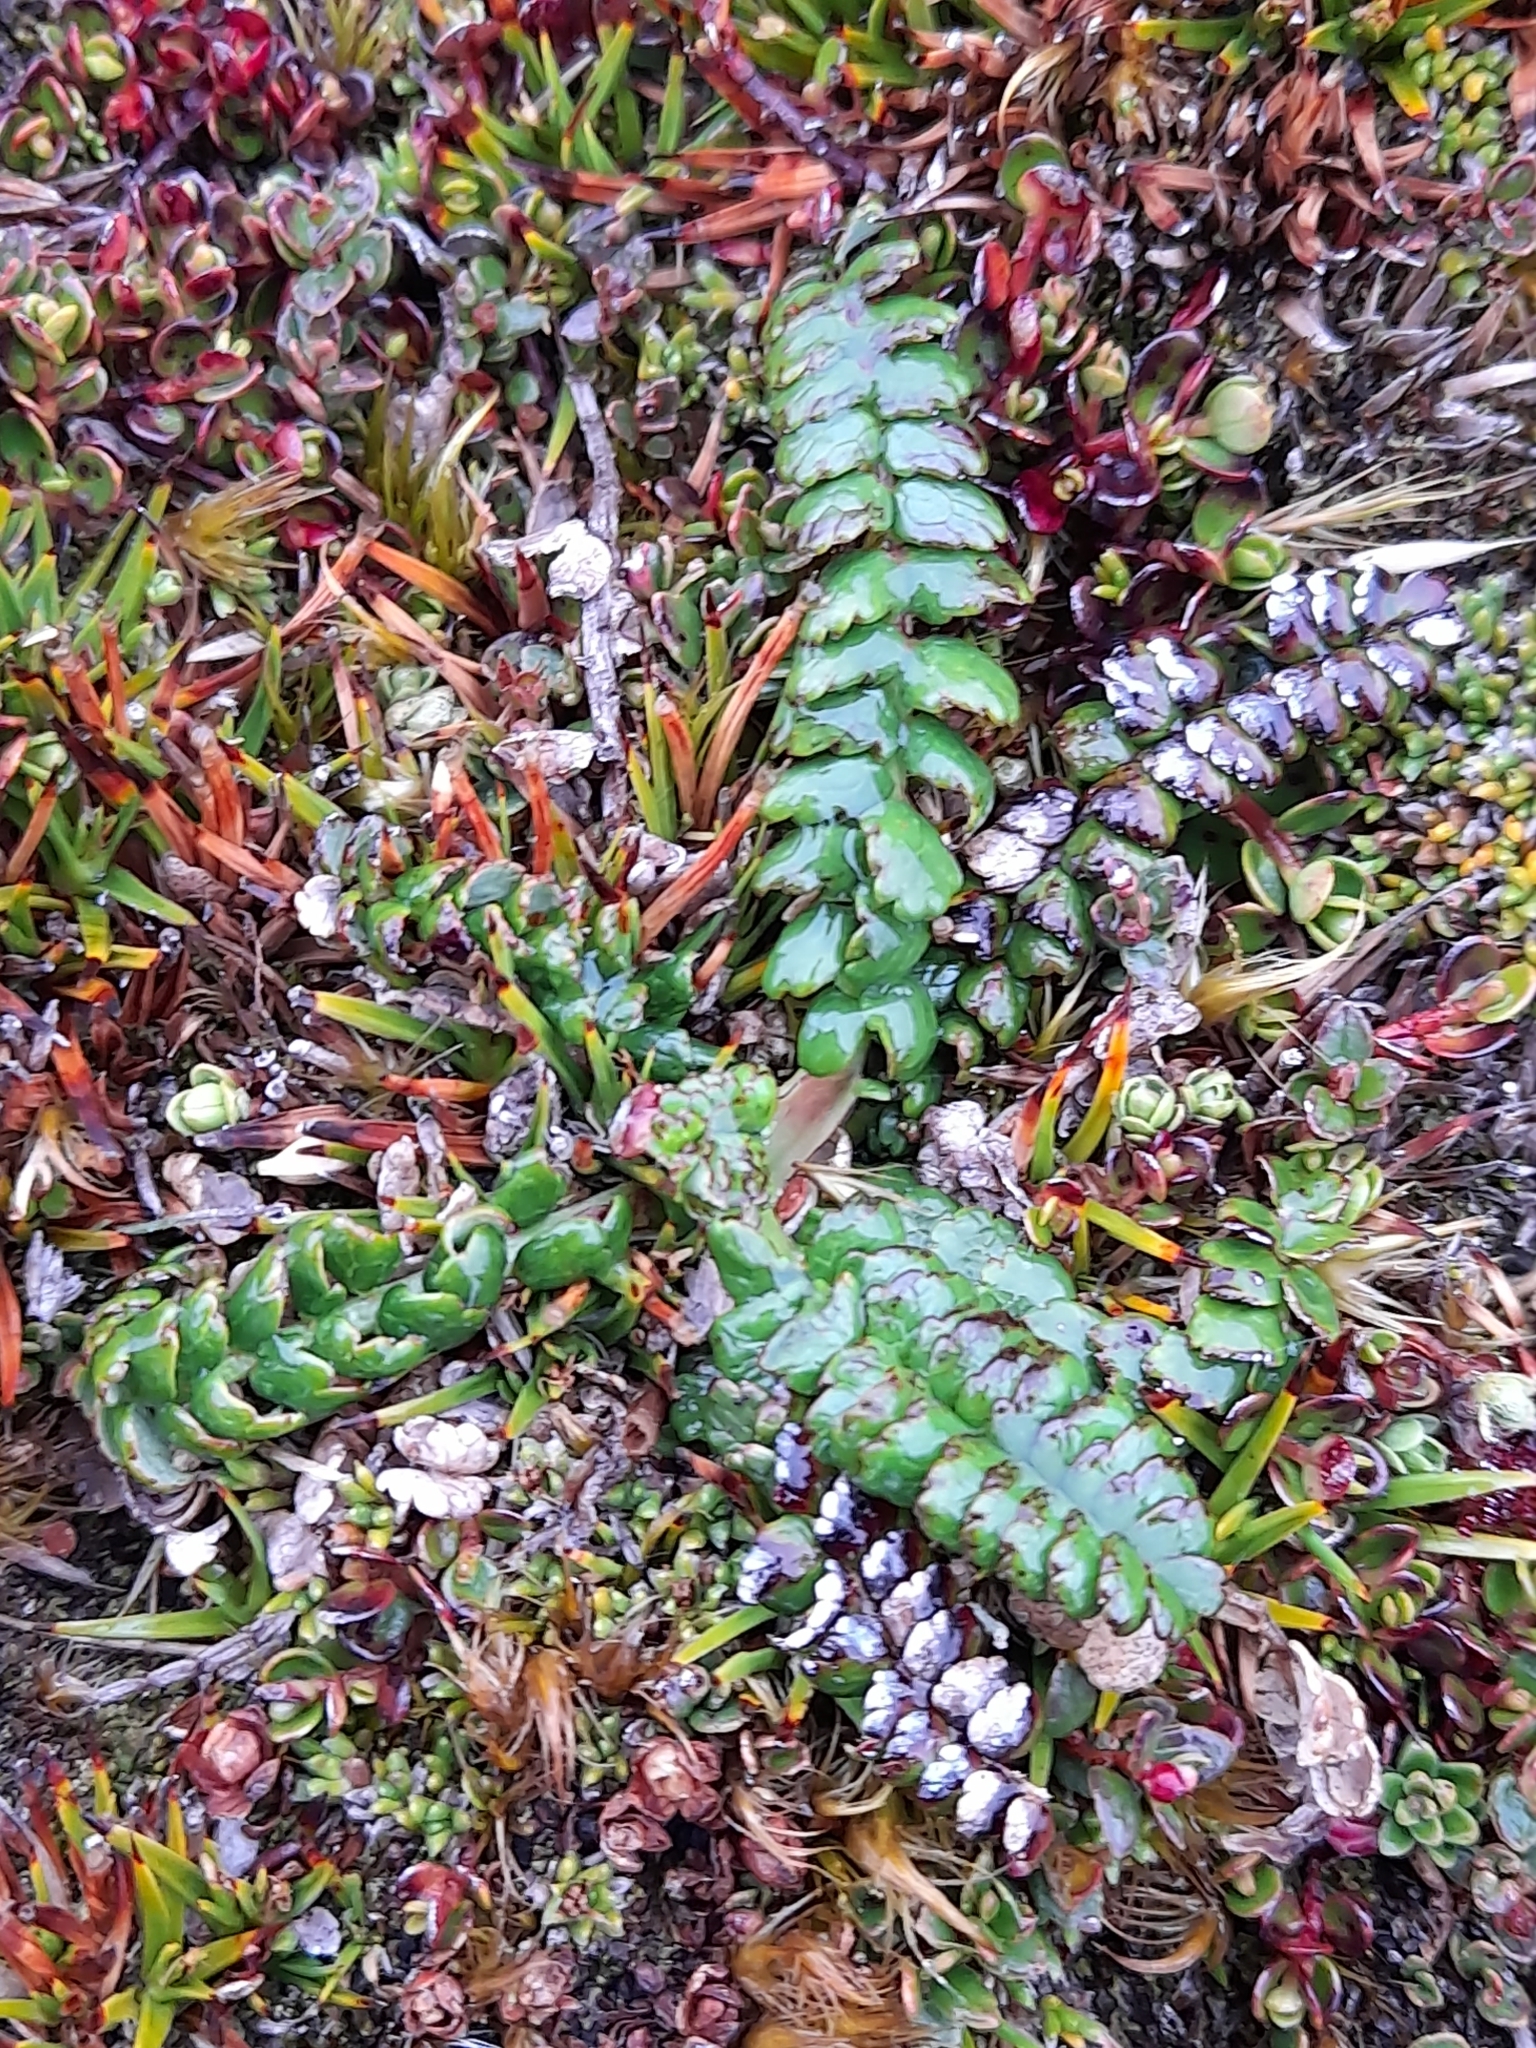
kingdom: Plantae
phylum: Tracheophyta
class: Magnoliopsida
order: Rosales
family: Rosaceae
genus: Acaena
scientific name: Acaena pumila
